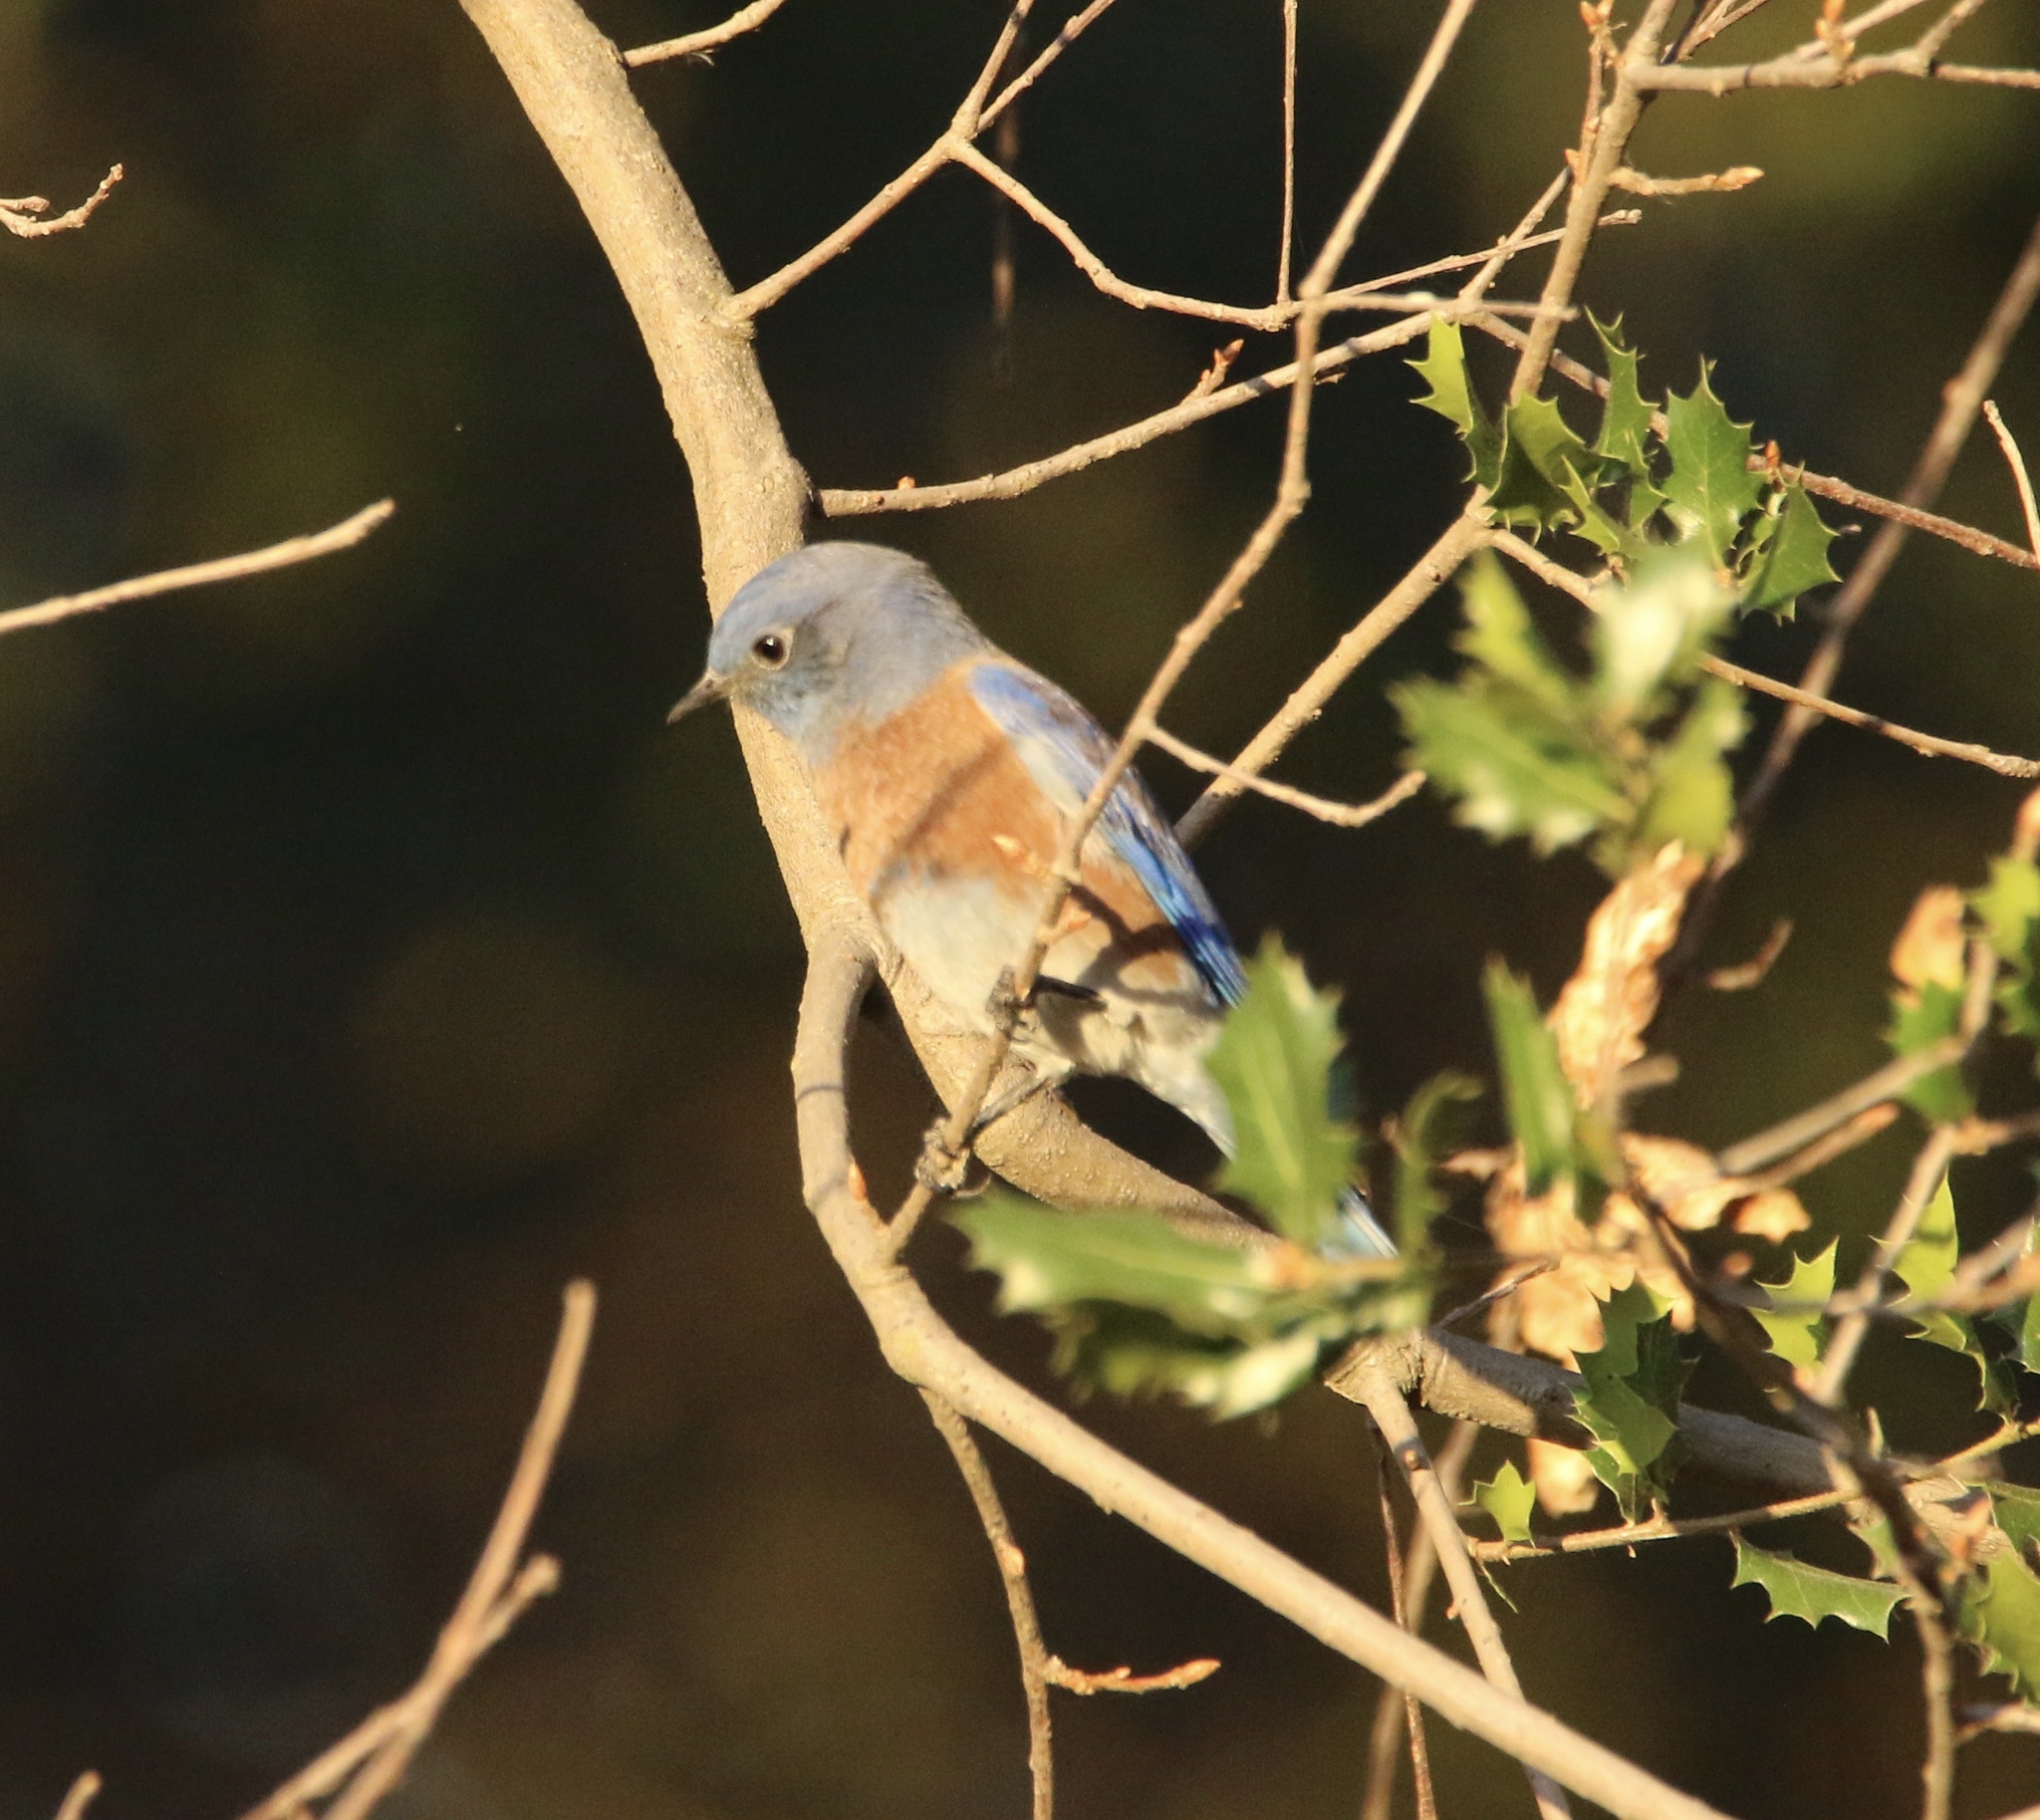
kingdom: Animalia
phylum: Chordata
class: Aves
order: Passeriformes
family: Turdidae
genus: Sialia
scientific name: Sialia mexicana
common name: Western bluebird
